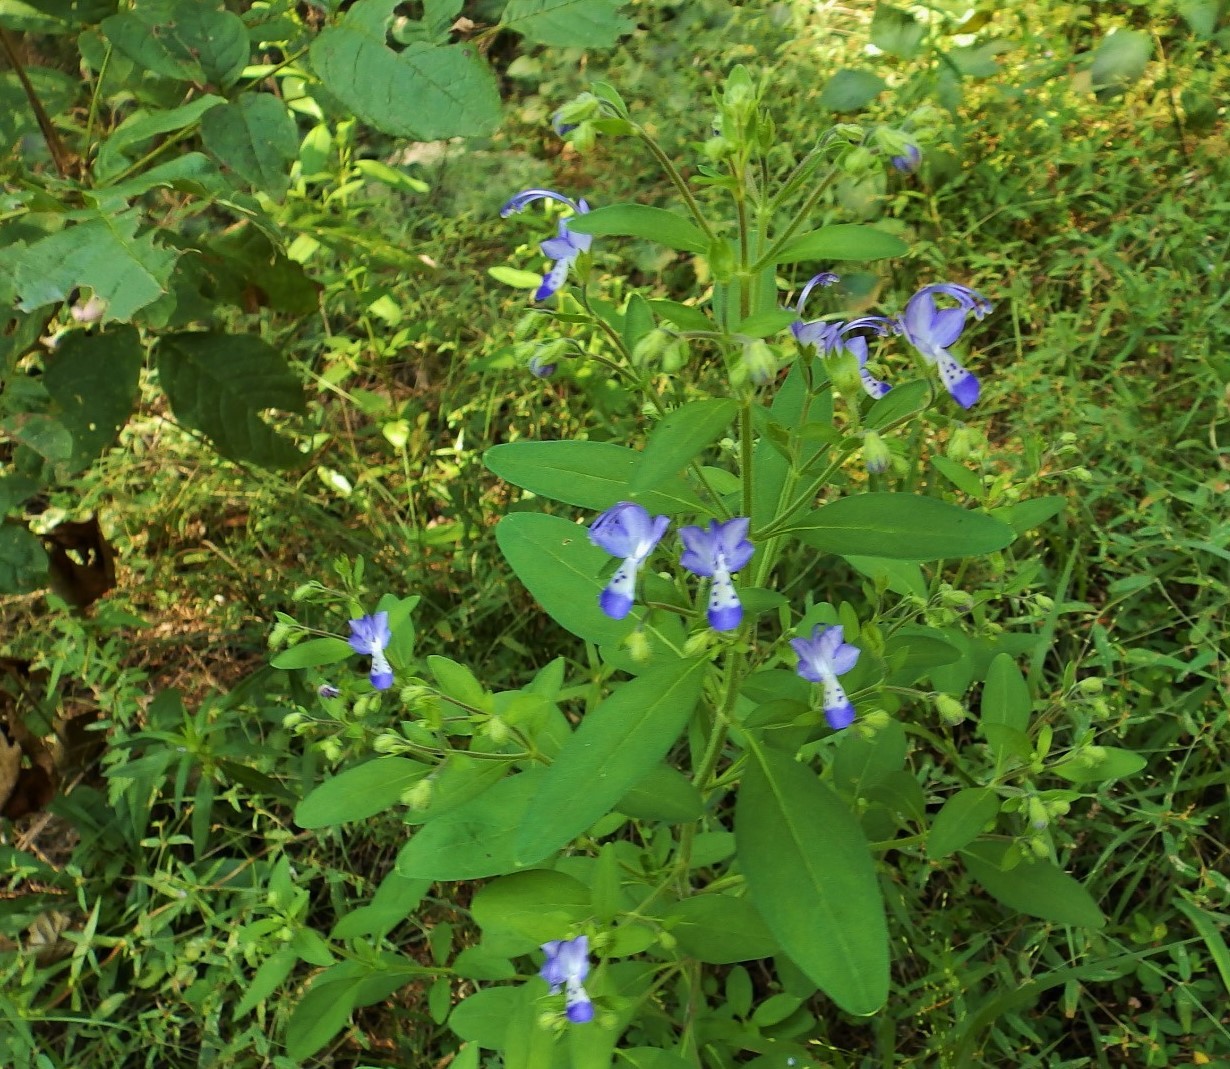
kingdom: Plantae
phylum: Tracheophyta
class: Magnoliopsida
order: Lamiales
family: Lamiaceae
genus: Trichostema
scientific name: Trichostema dichotomum
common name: Bastard pennyroyal
